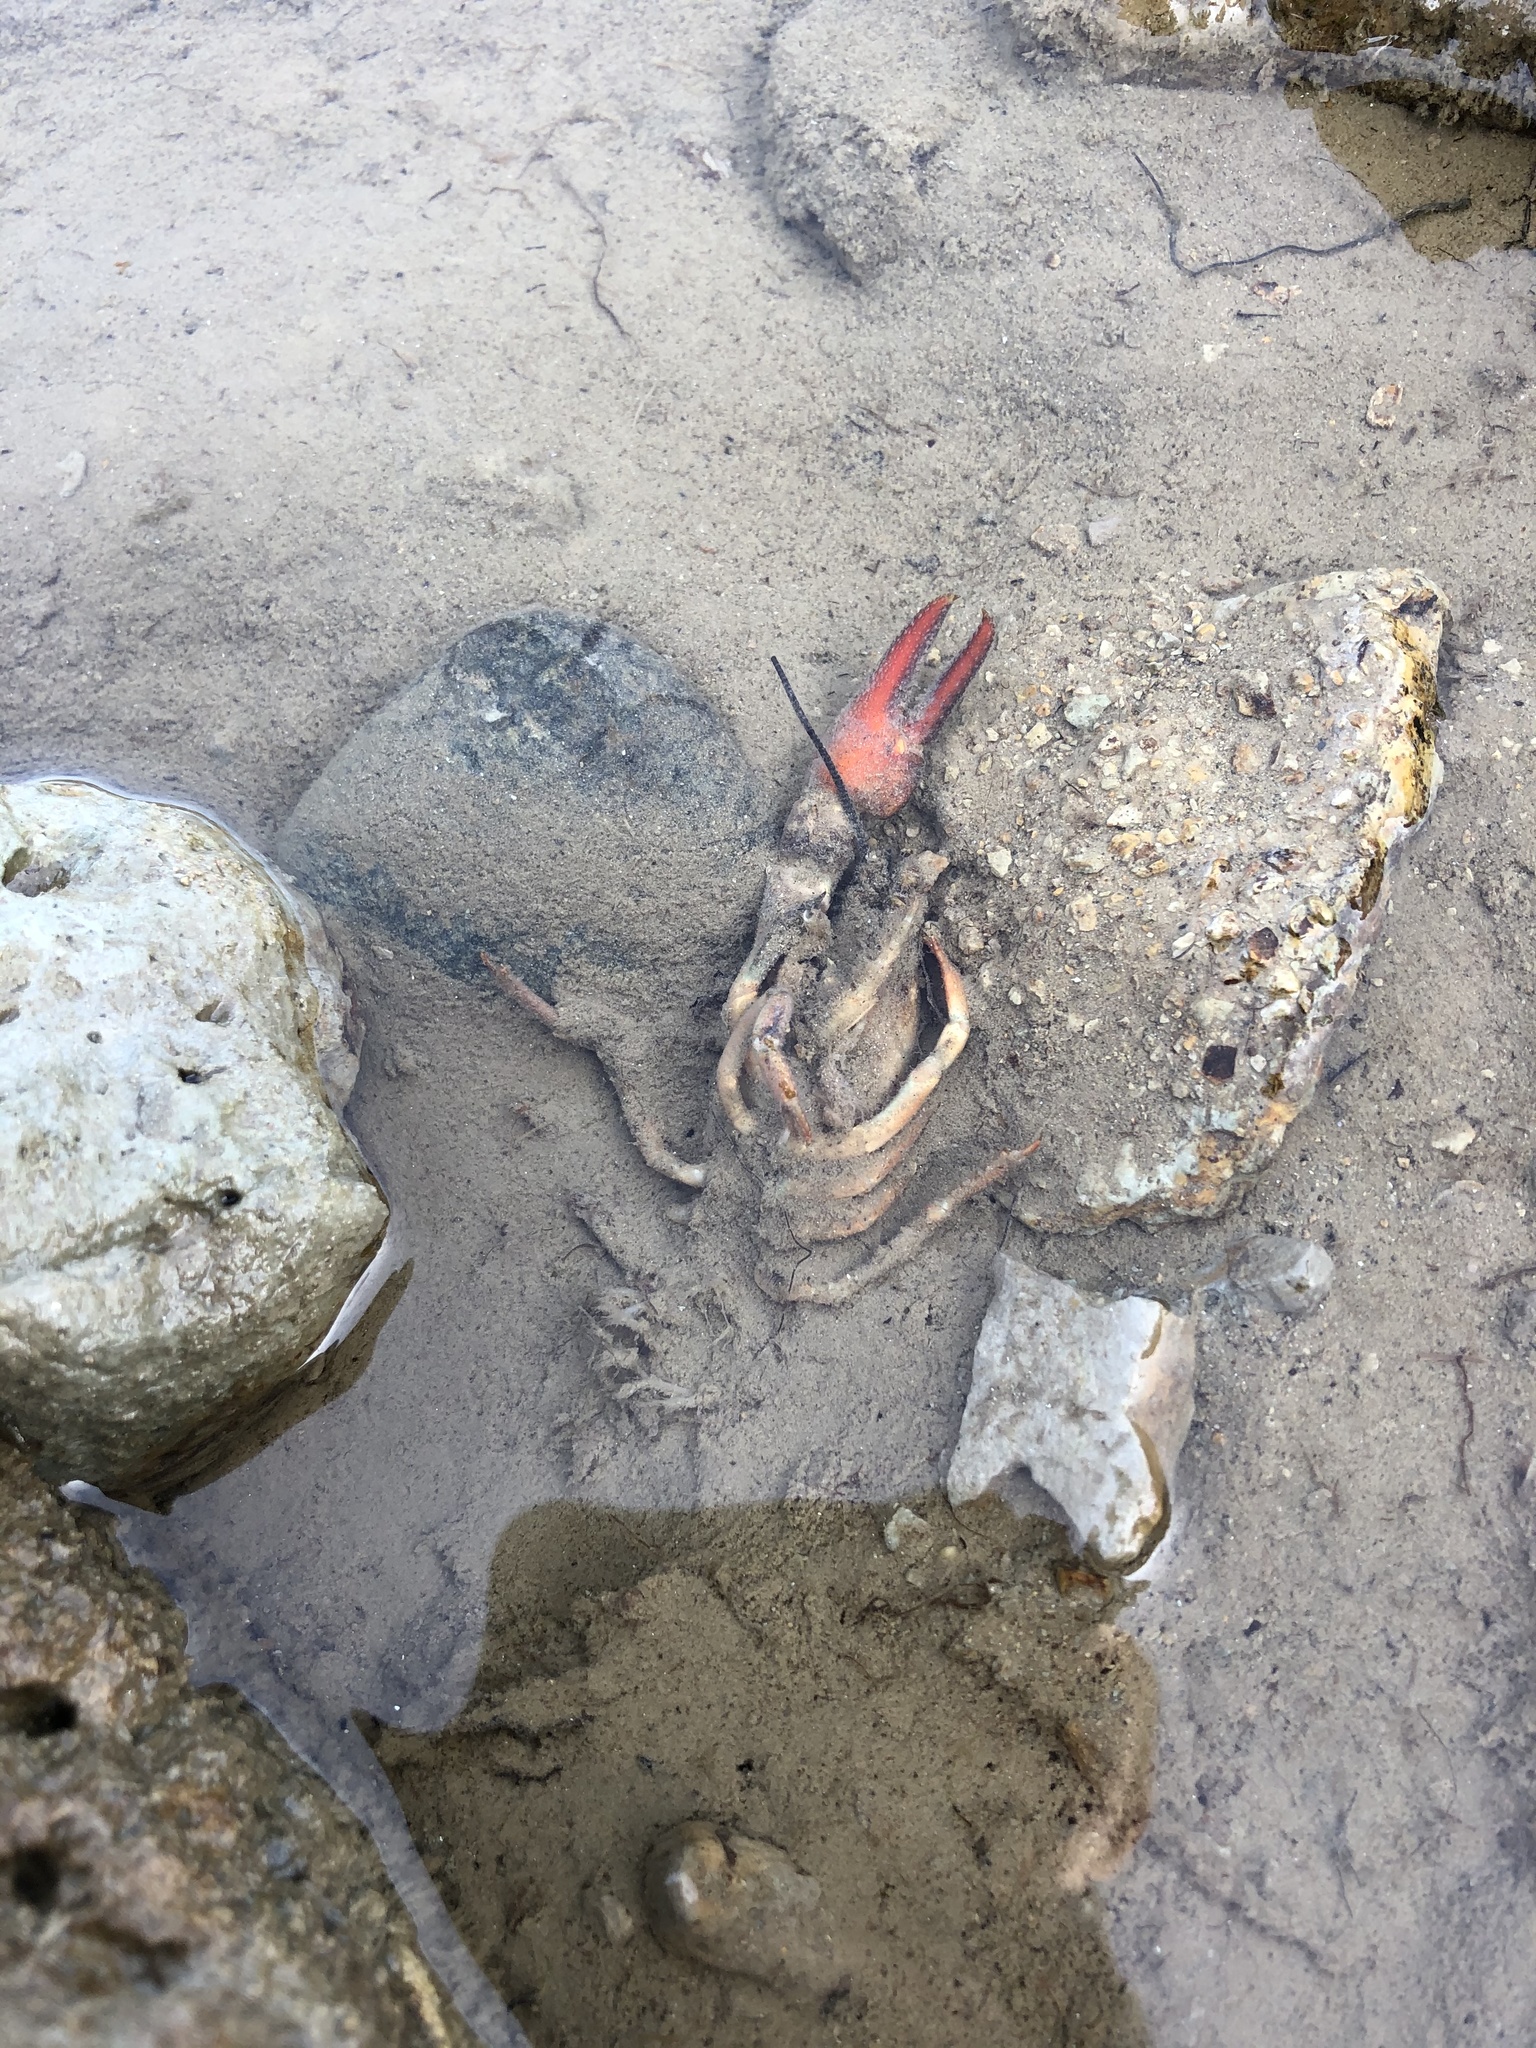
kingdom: Animalia
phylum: Arthropoda
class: Malacostraca
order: Decapoda
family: Astacidae
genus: Pacifastacus
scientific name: Pacifastacus leniusculus
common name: Signal crayfish
